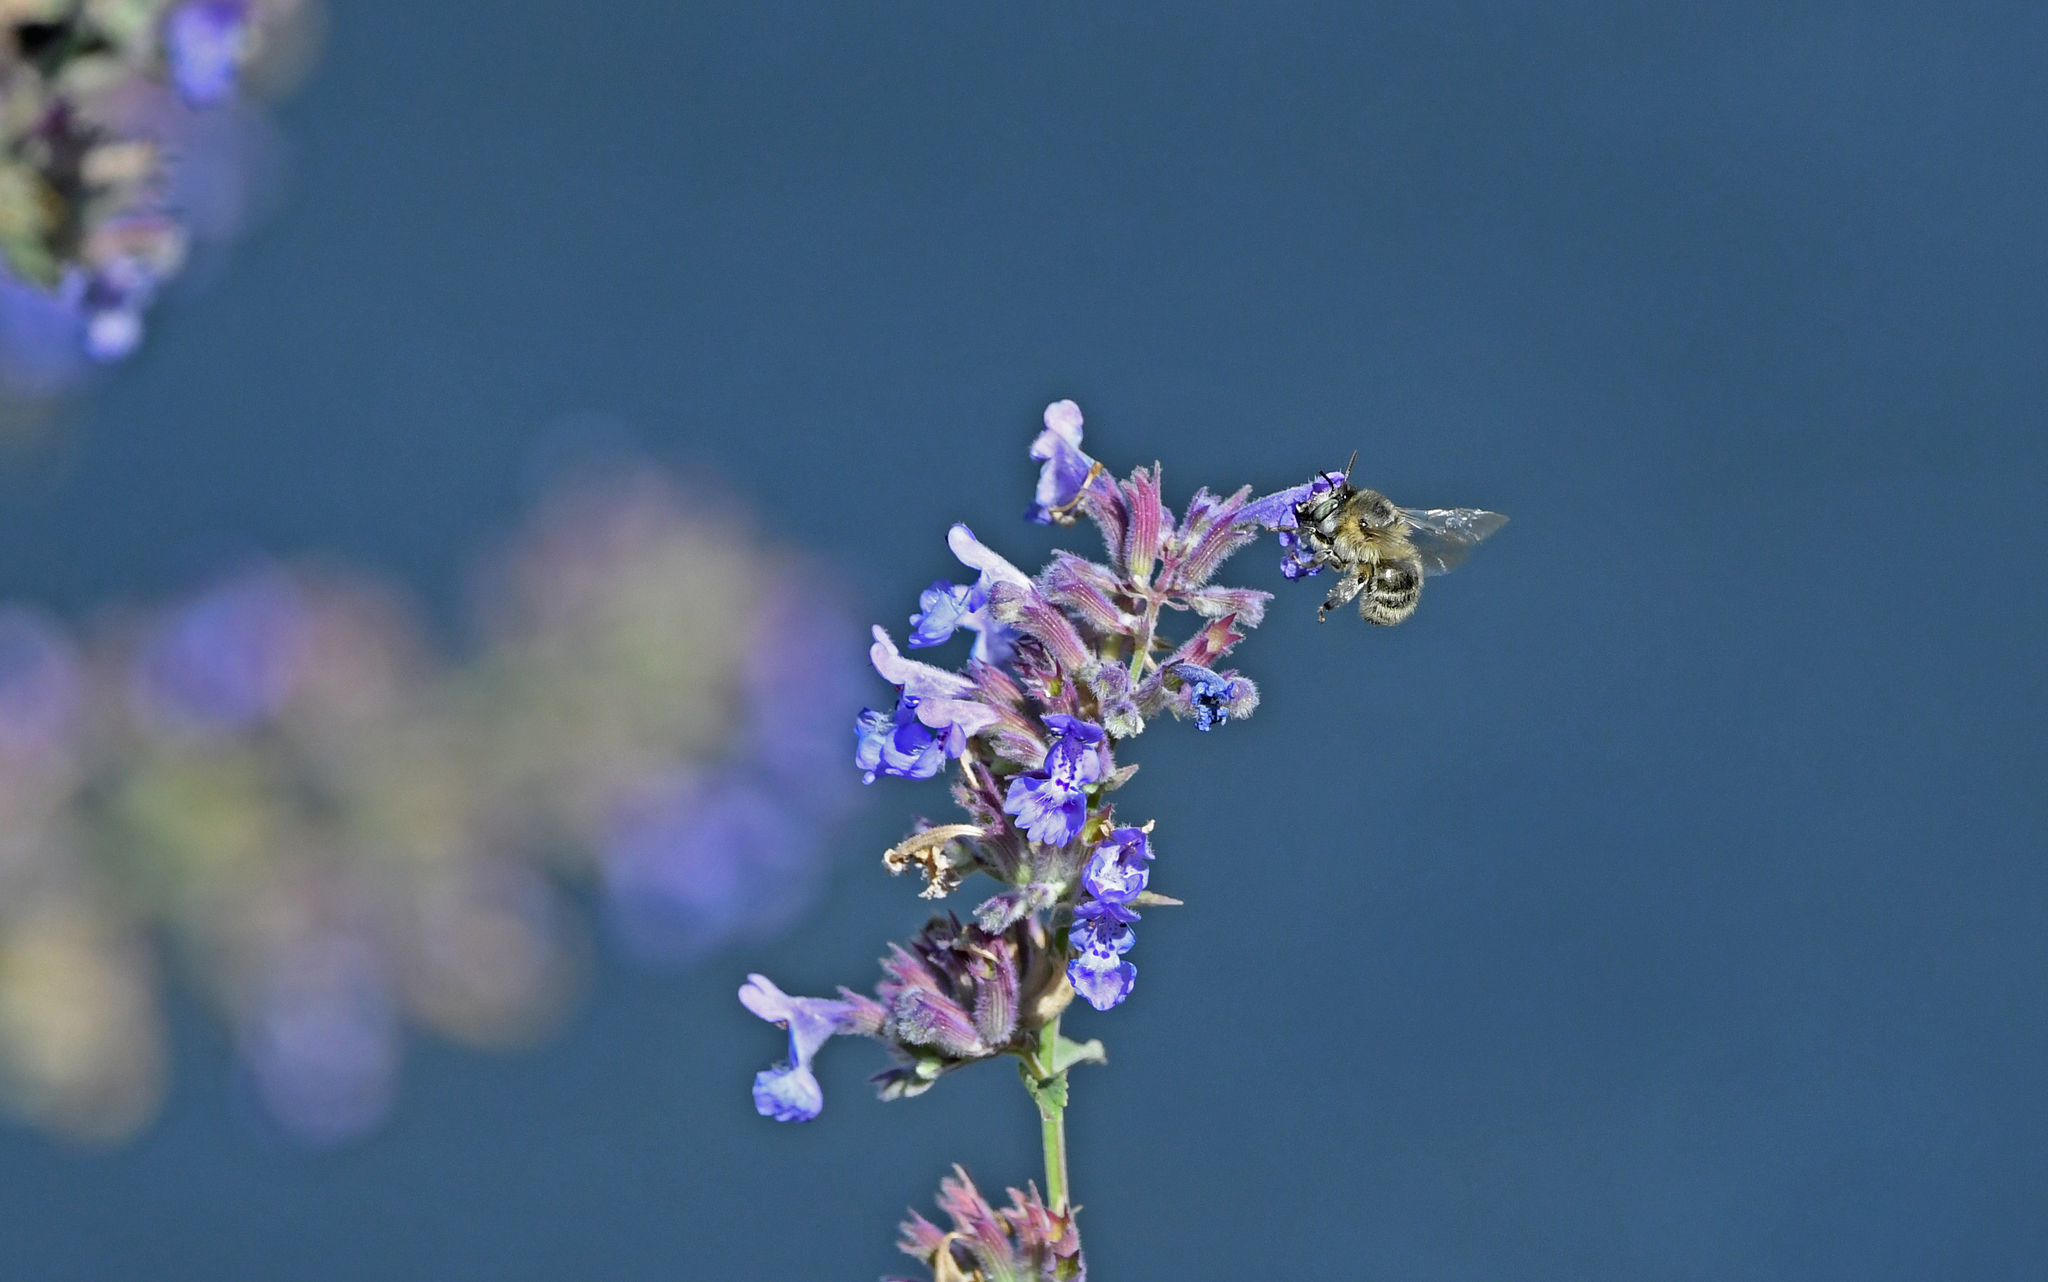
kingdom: Animalia
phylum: Arthropoda
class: Insecta
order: Hymenoptera
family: Apidae
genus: Anthophora
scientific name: Anthophora quadrimaculata
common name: Four-banded flower bee
